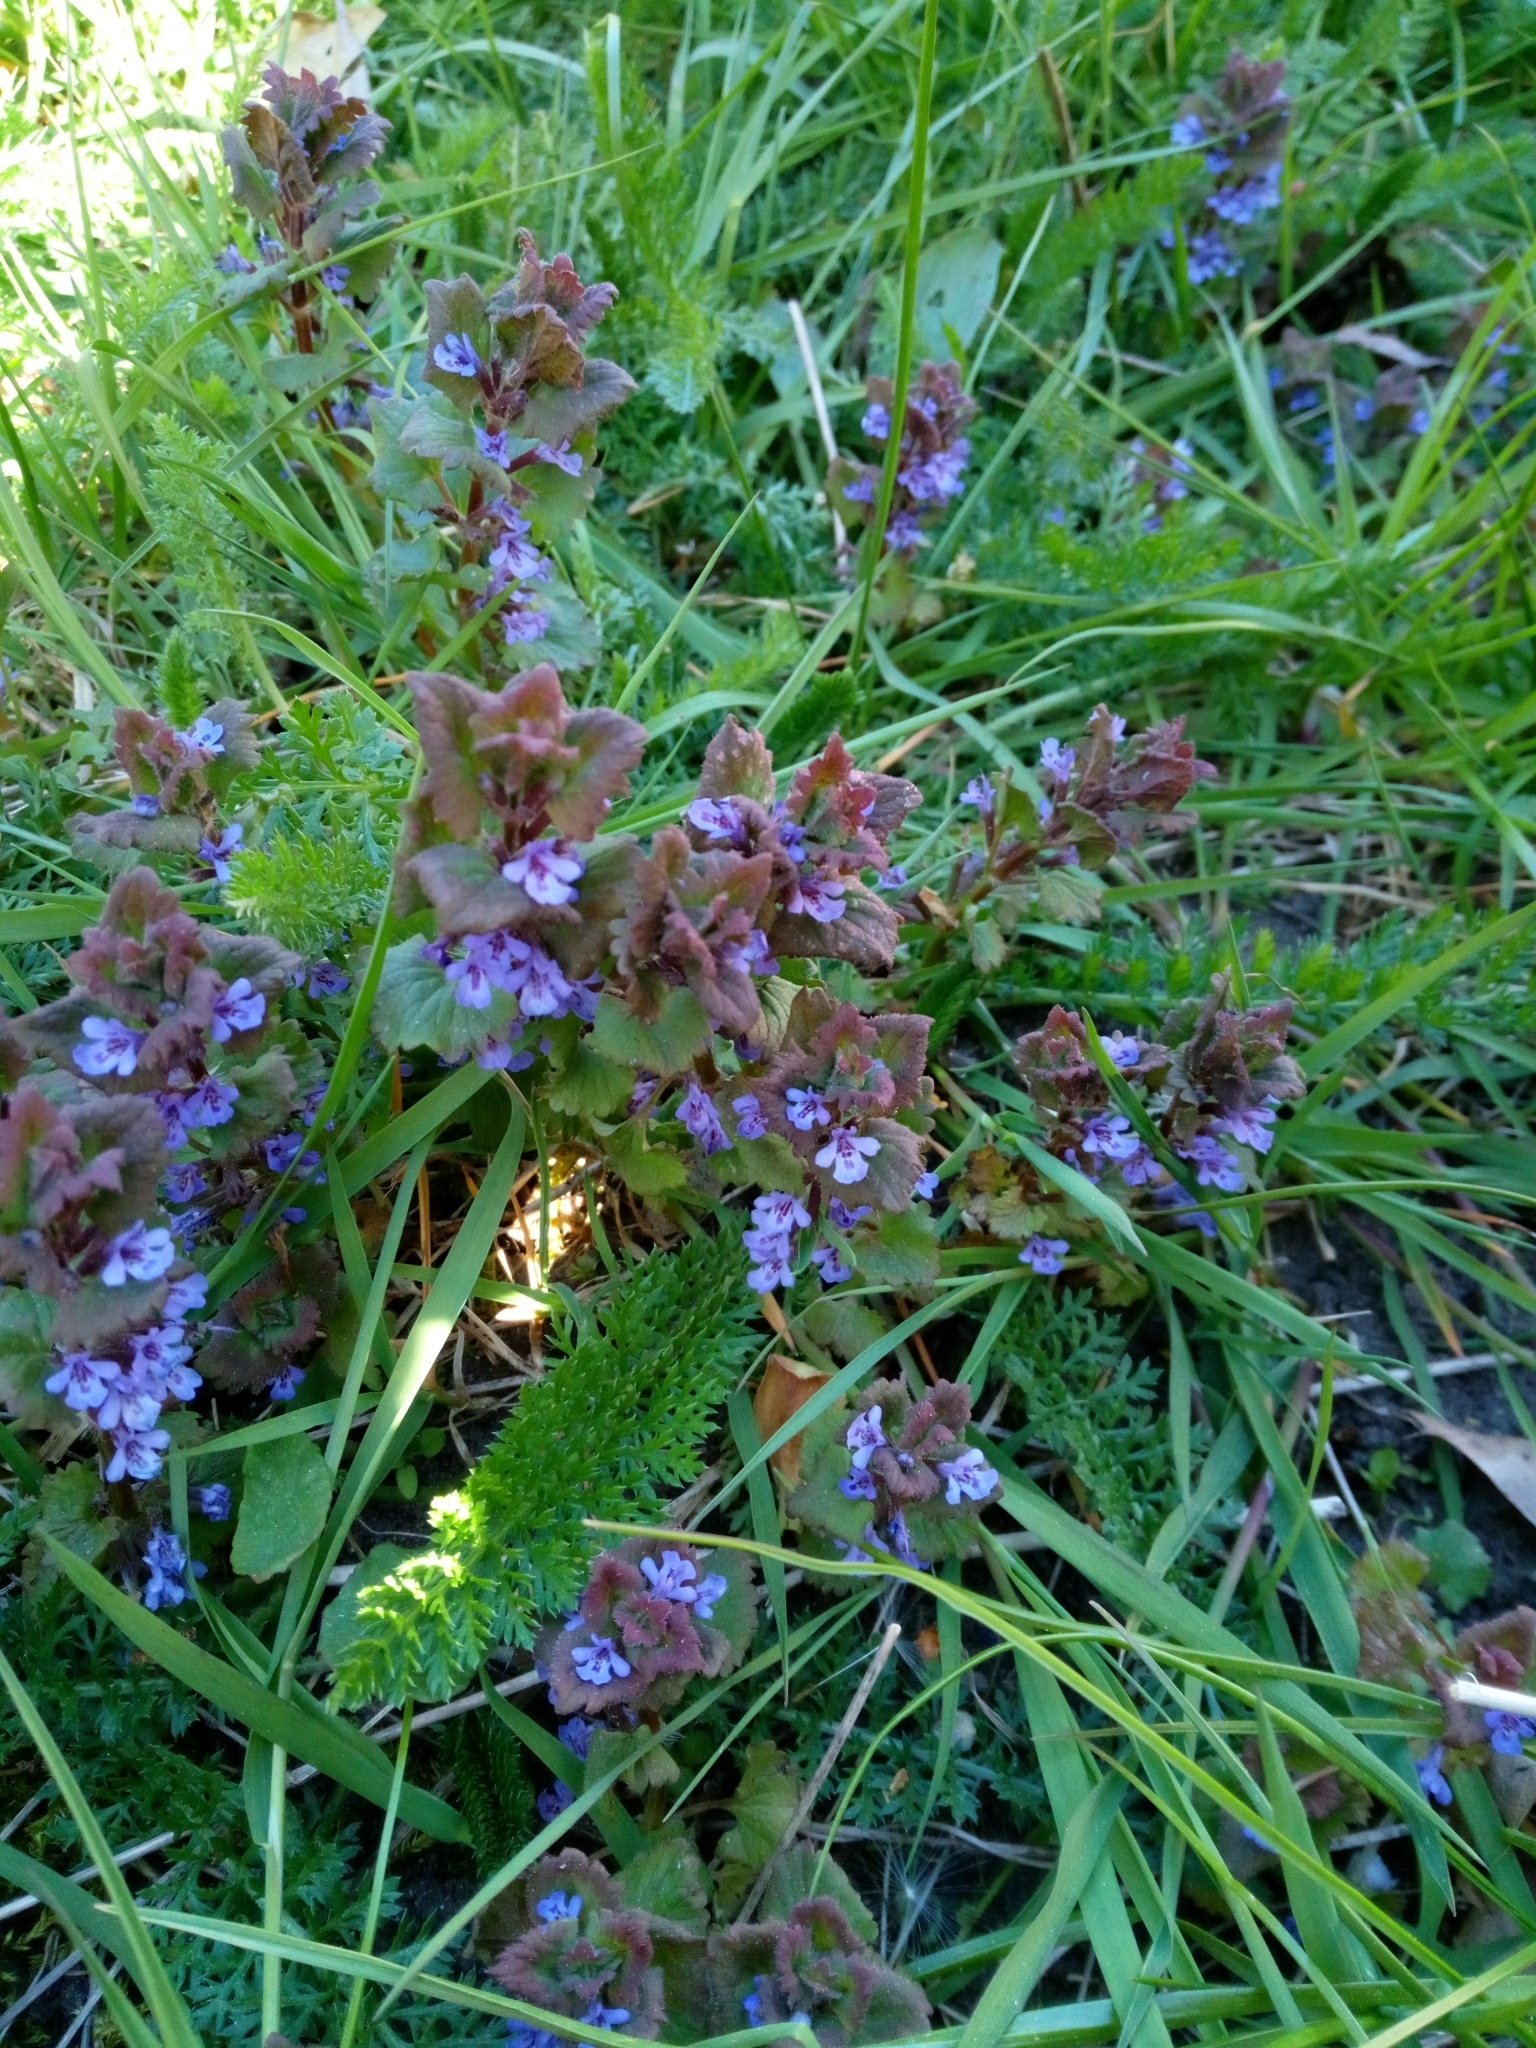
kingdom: Plantae
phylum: Tracheophyta
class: Magnoliopsida
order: Lamiales
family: Lamiaceae
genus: Glechoma
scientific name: Glechoma hederacea
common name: Ground ivy
